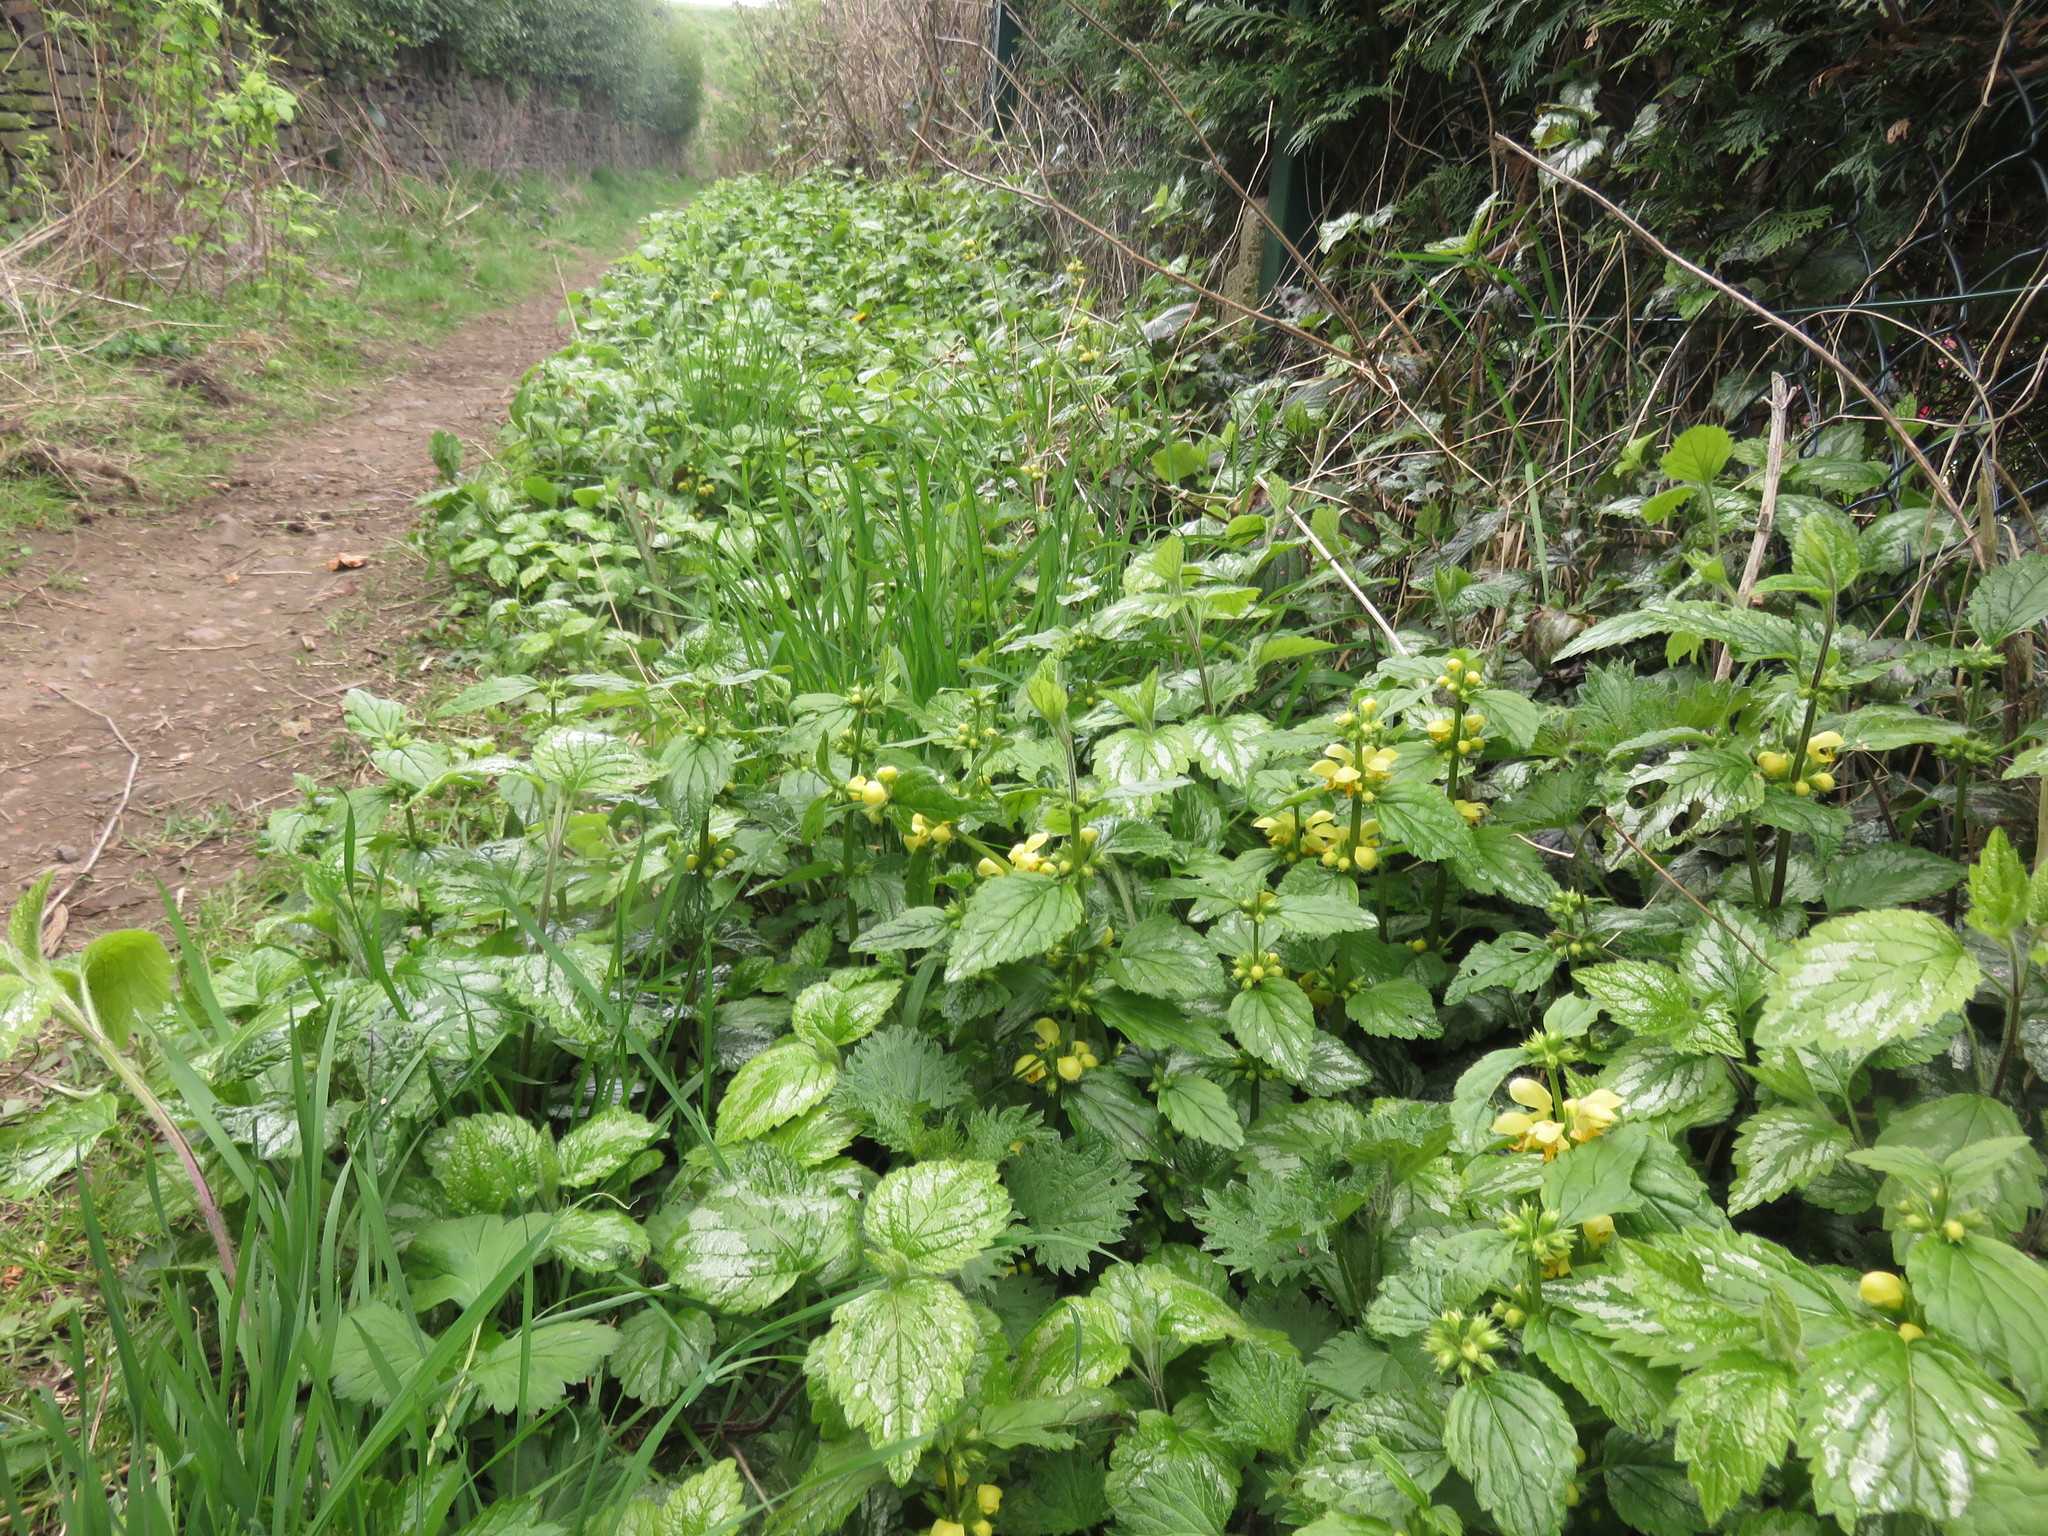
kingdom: Plantae
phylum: Tracheophyta
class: Magnoliopsida
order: Lamiales
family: Lamiaceae
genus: Lamium
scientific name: Lamium galeobdolon
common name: Yellow archangel
